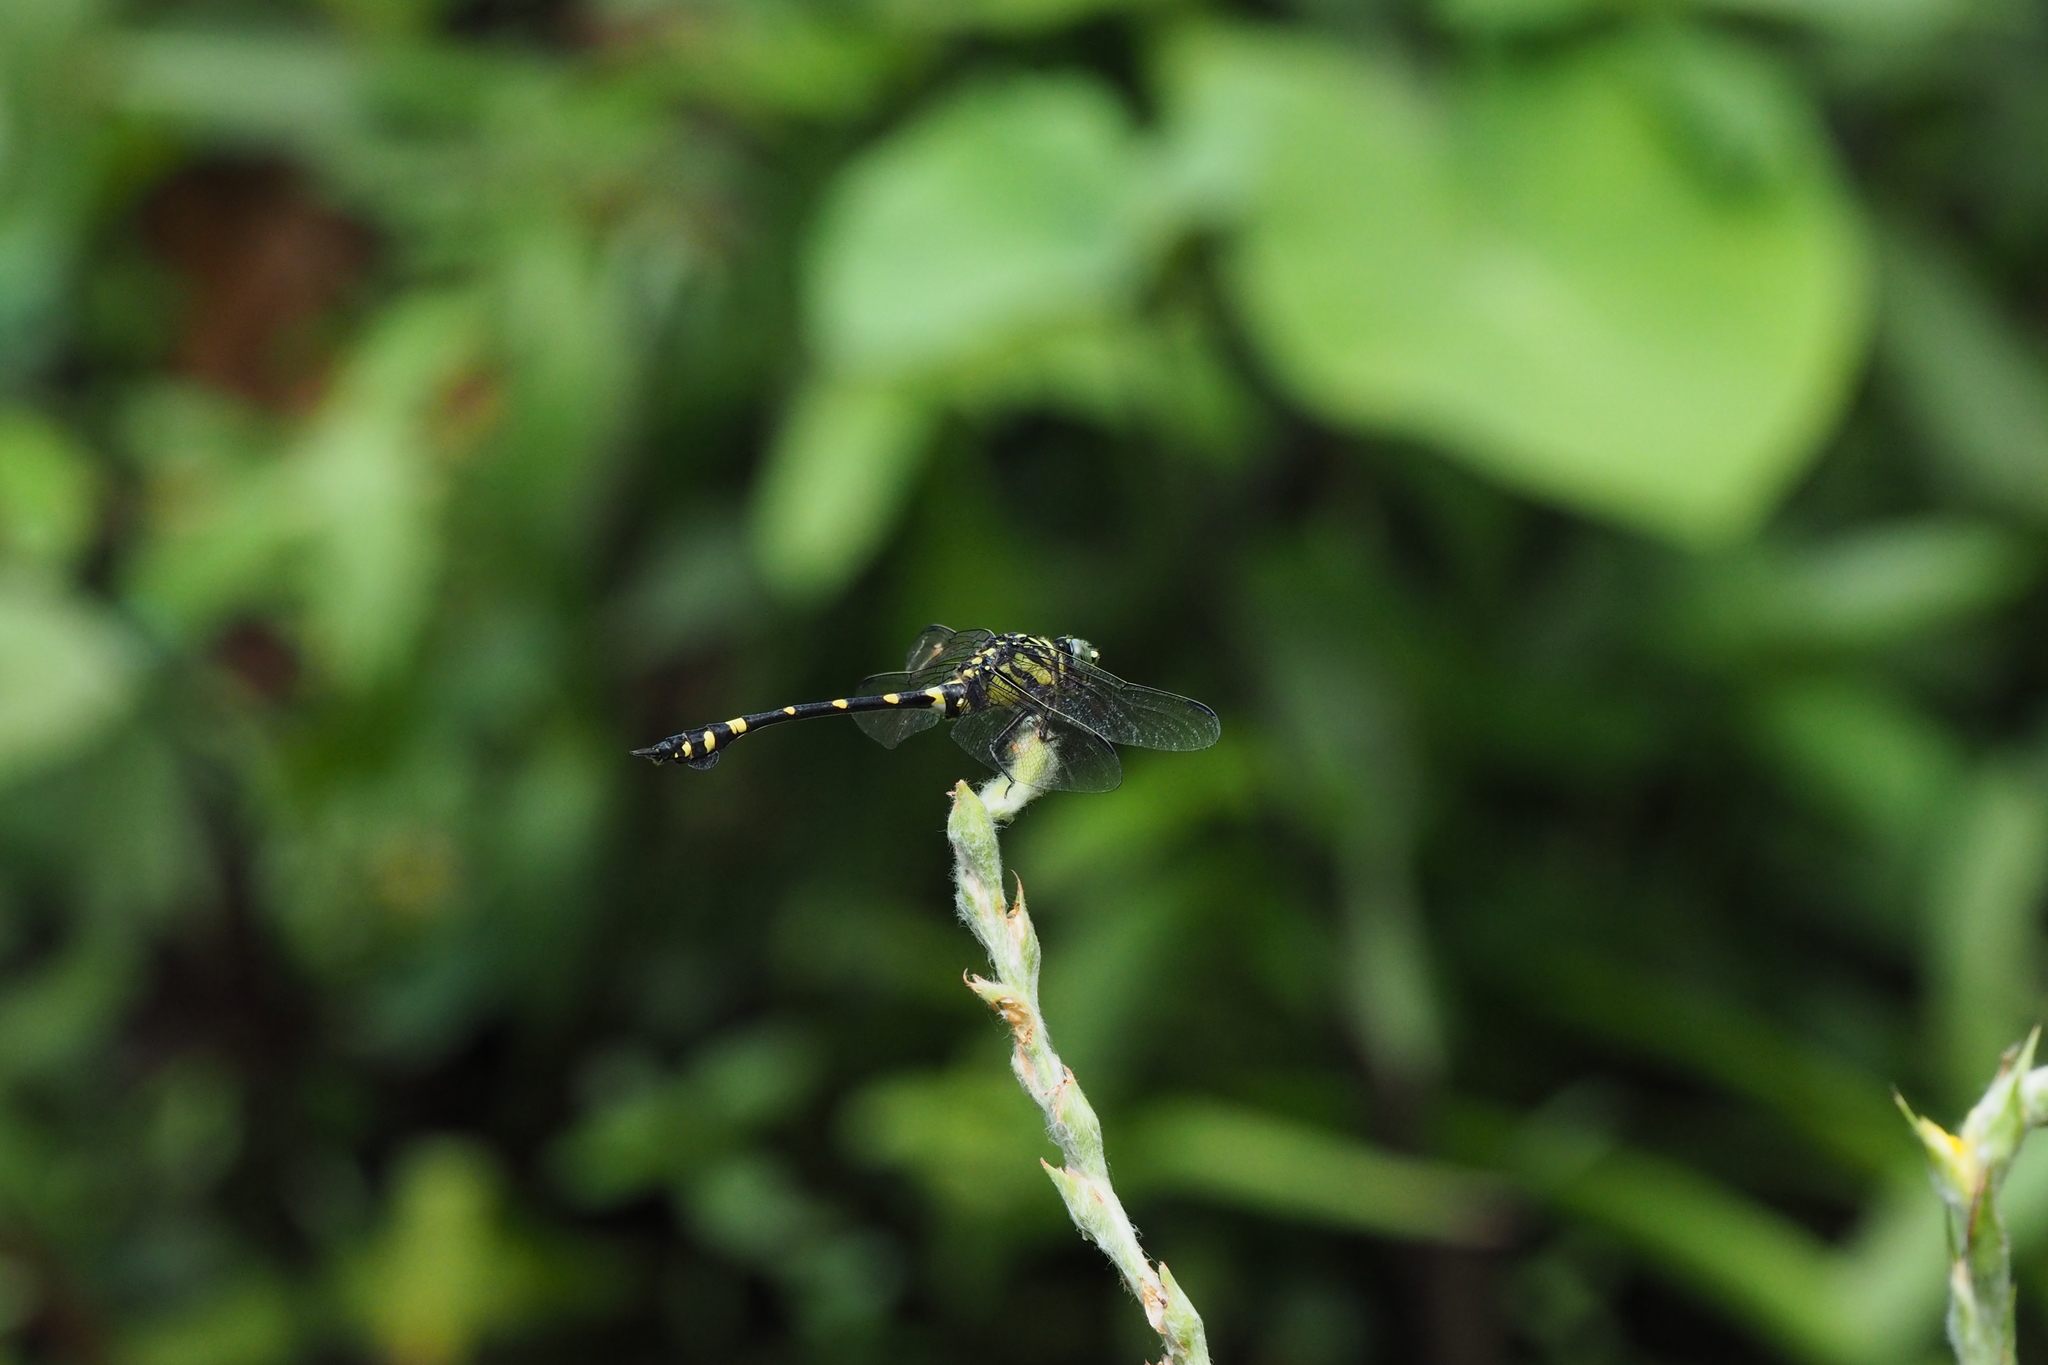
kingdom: Animalia
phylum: Arthropoda
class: Insecta
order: Odonata
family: Gomphidae
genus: Ictinogomphus
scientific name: Ictinogomphus rapax
